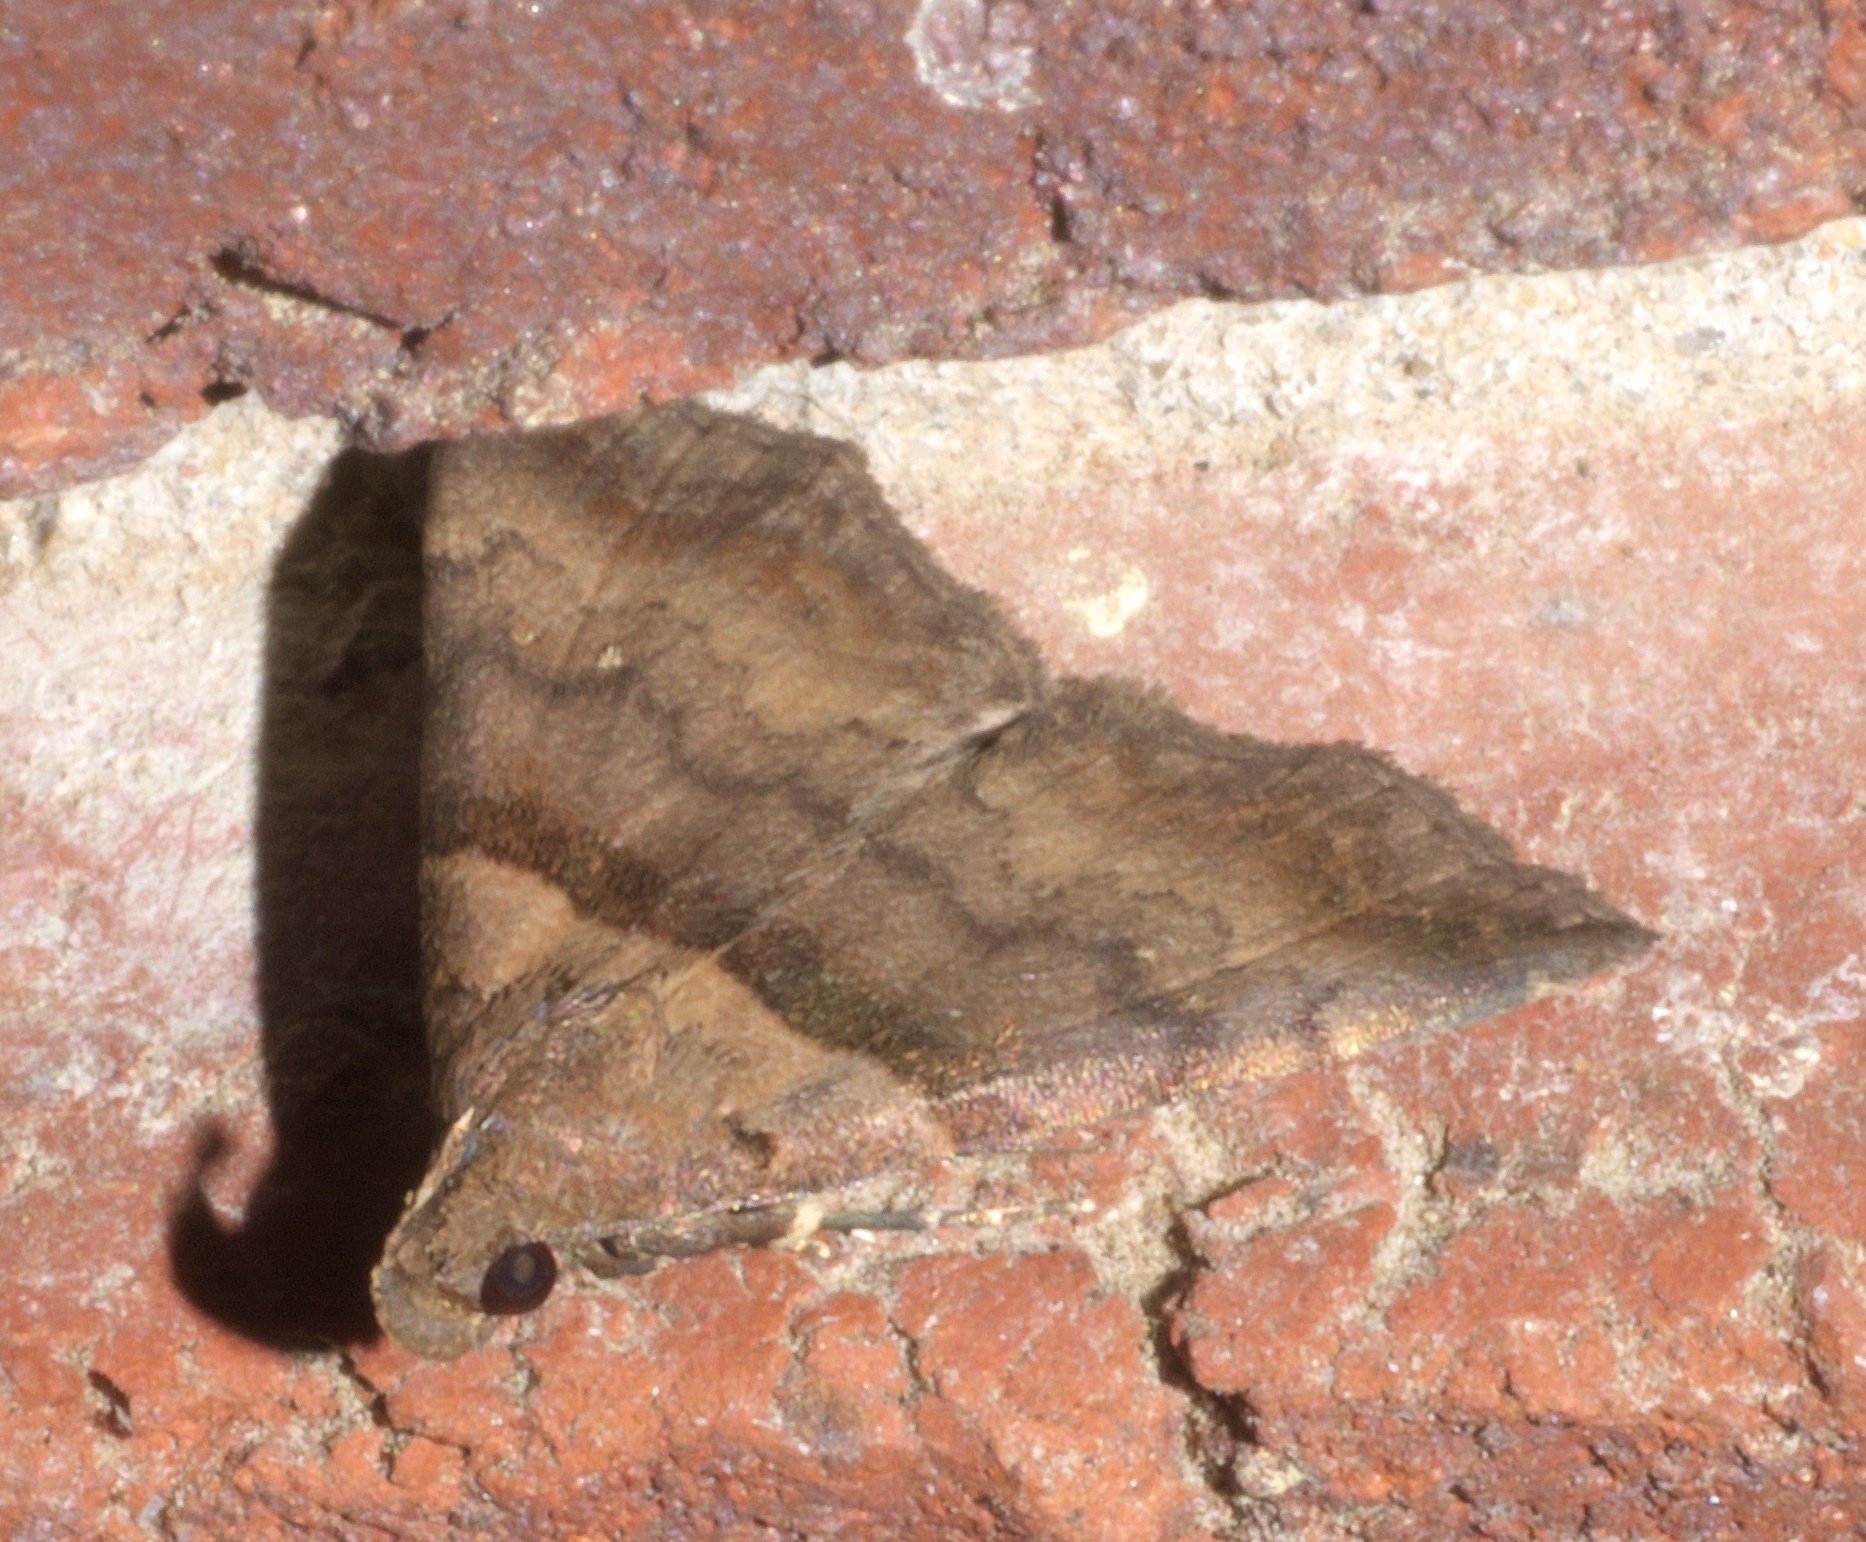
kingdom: Animalia
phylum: Arthropoda
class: Insecta
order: Lepidoptera
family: Erebidae
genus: Lascoria
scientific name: Lascoria ambigualis
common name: Ambiguous moth
